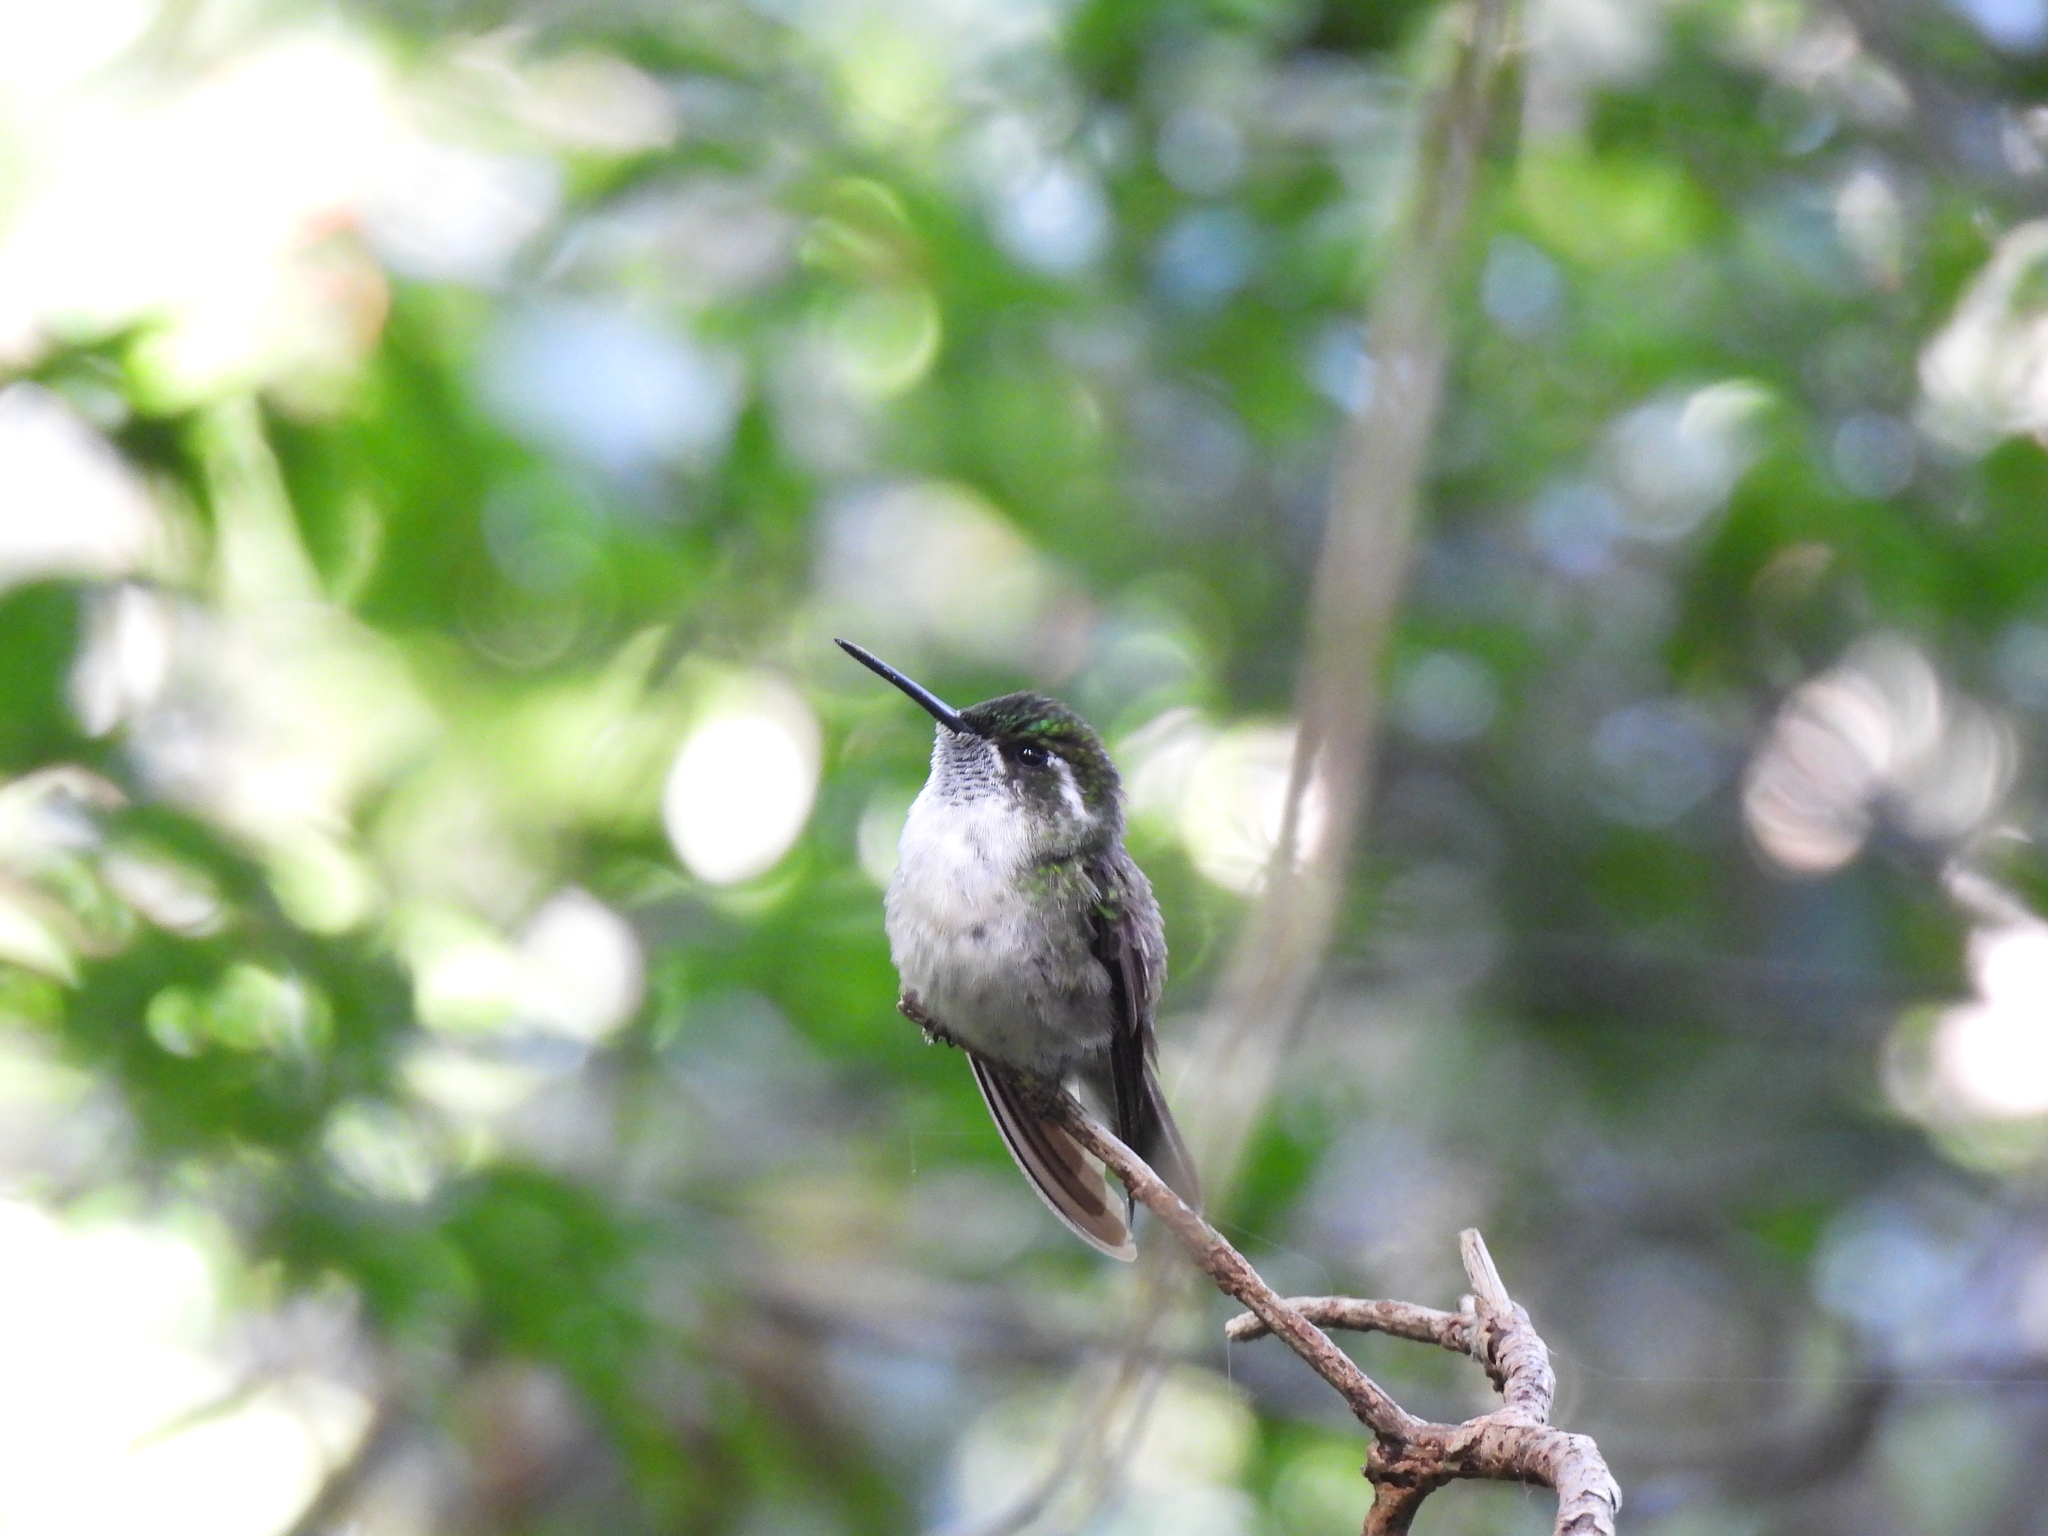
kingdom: Animalia
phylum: Chordata
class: Aves
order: Apodiformes
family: Trochilidae
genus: Lampornis
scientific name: Lampornis viridipallens
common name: Green-throated mountain-gem
